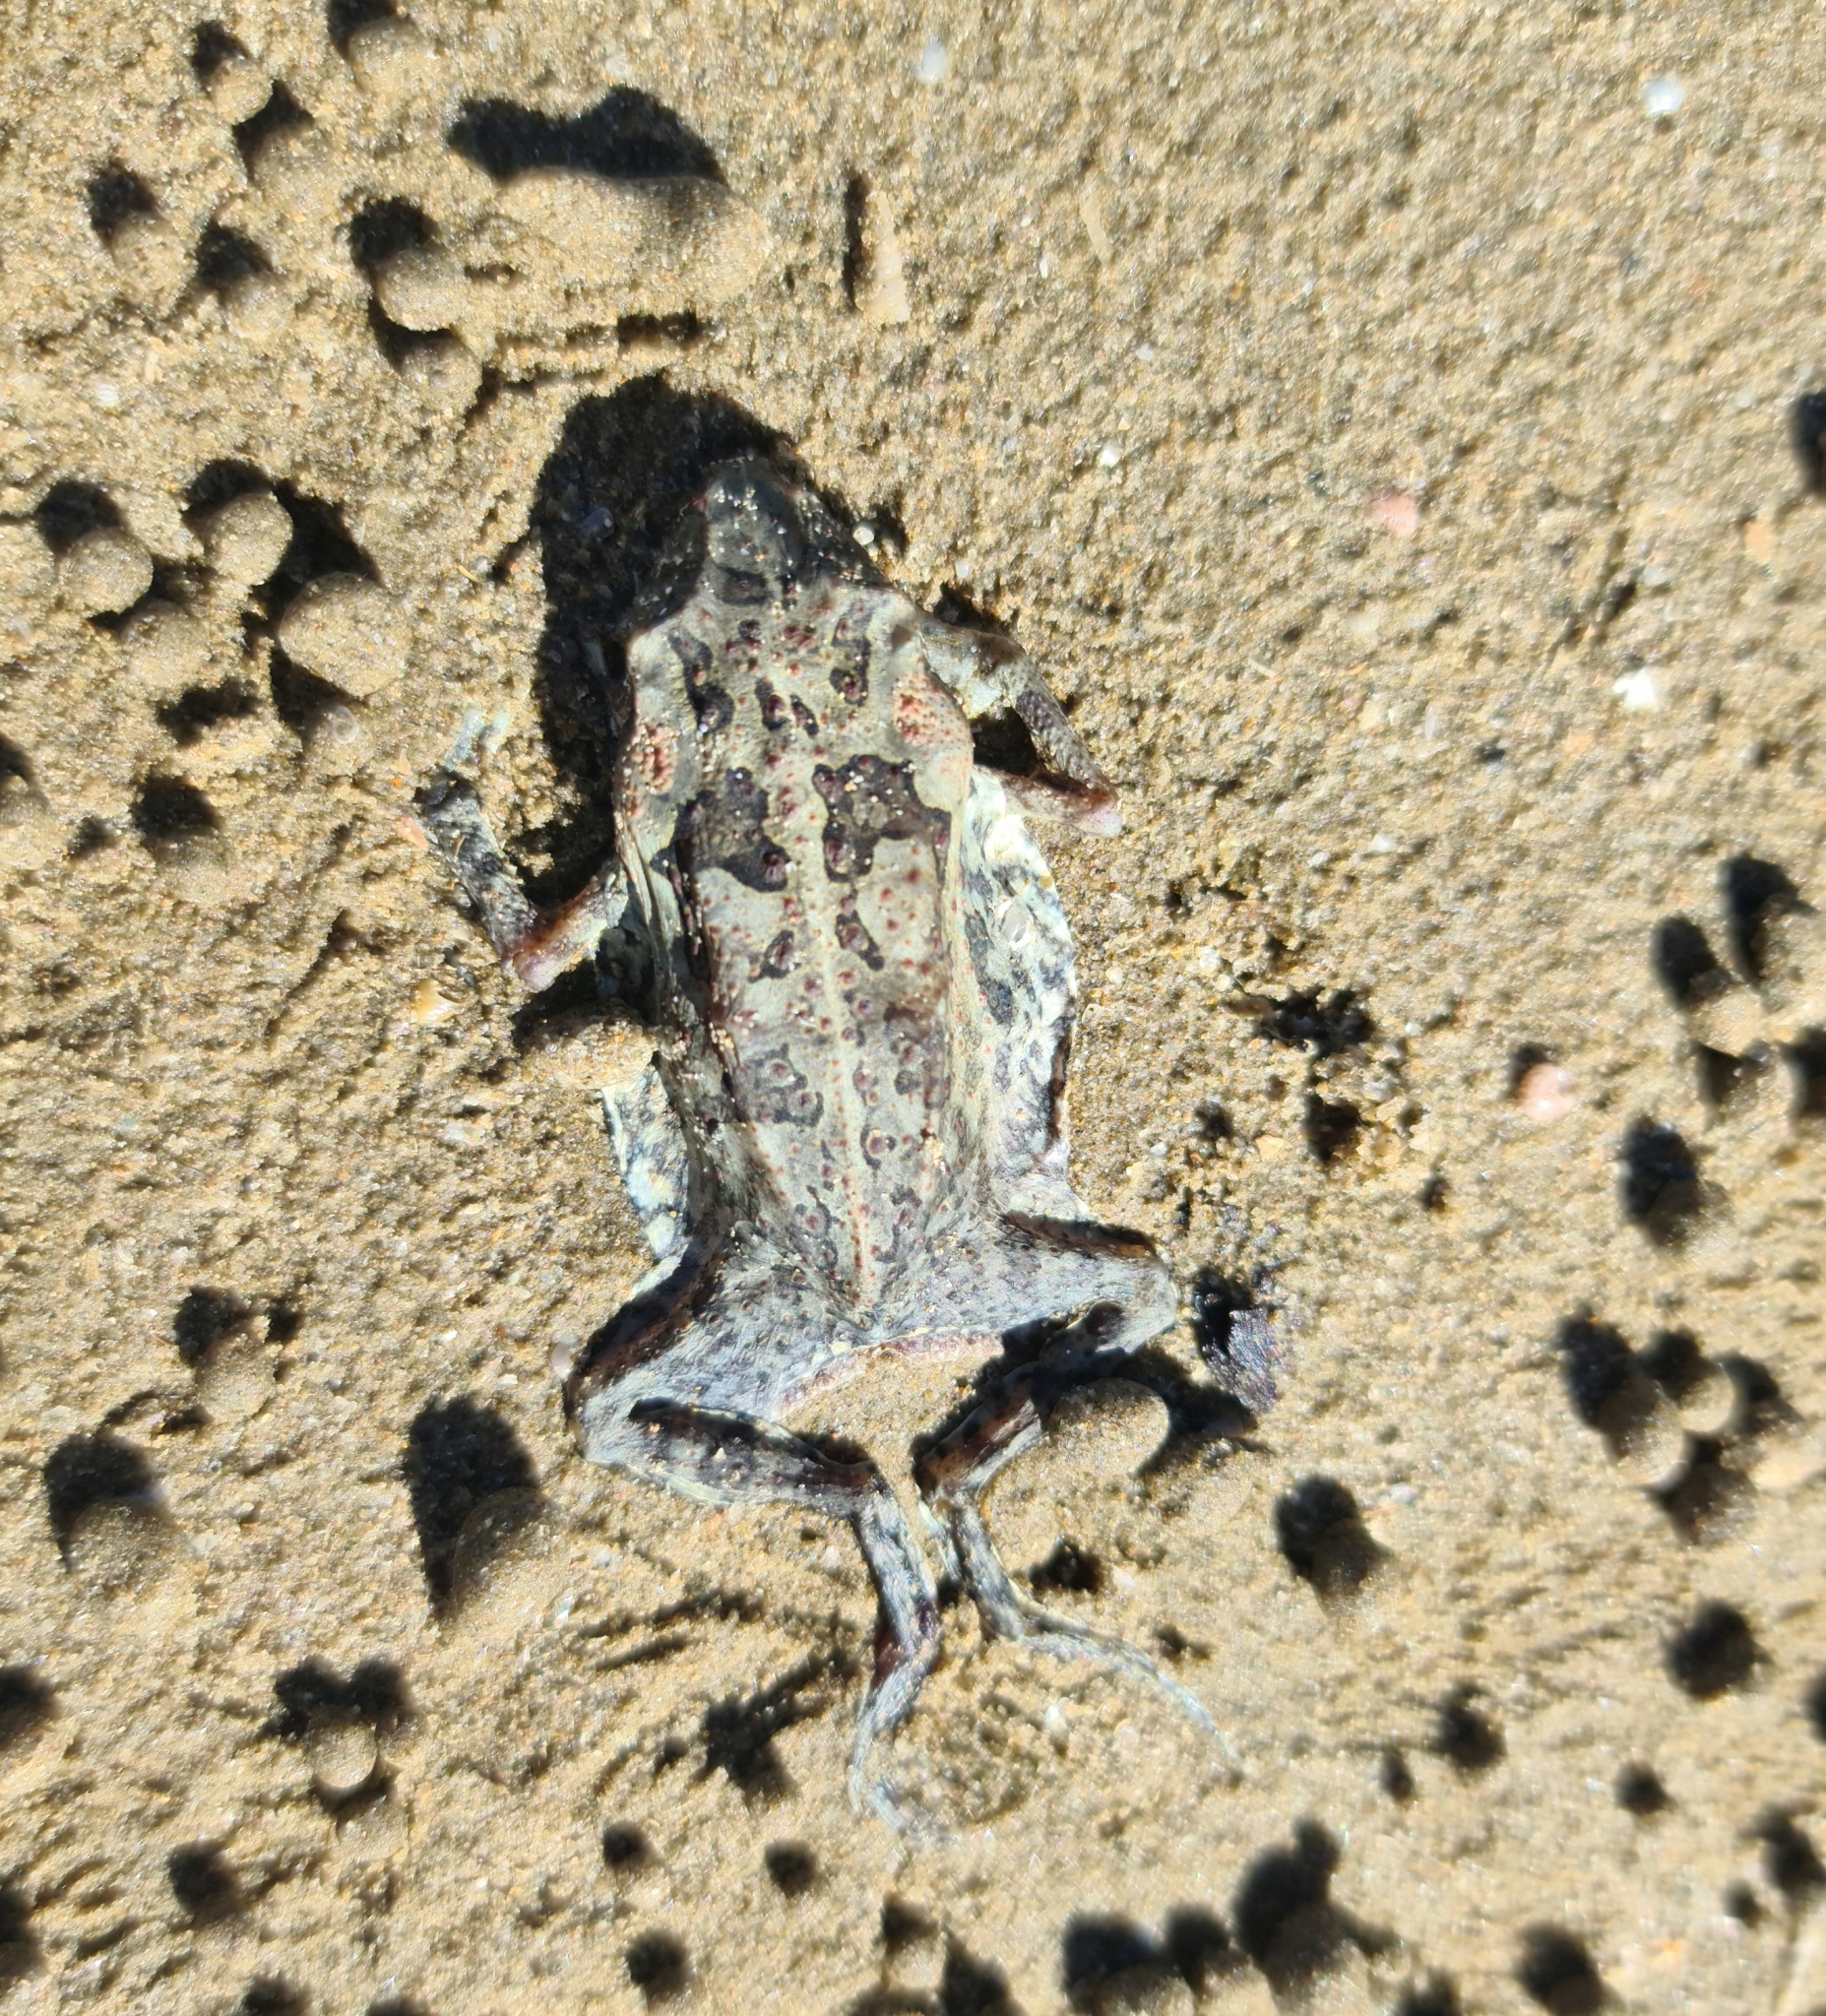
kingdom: Animalia
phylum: Chordata
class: Amphibia
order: Anura
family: Bufonidae
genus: Rhinella
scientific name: Rhinella marina
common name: Cane toad
